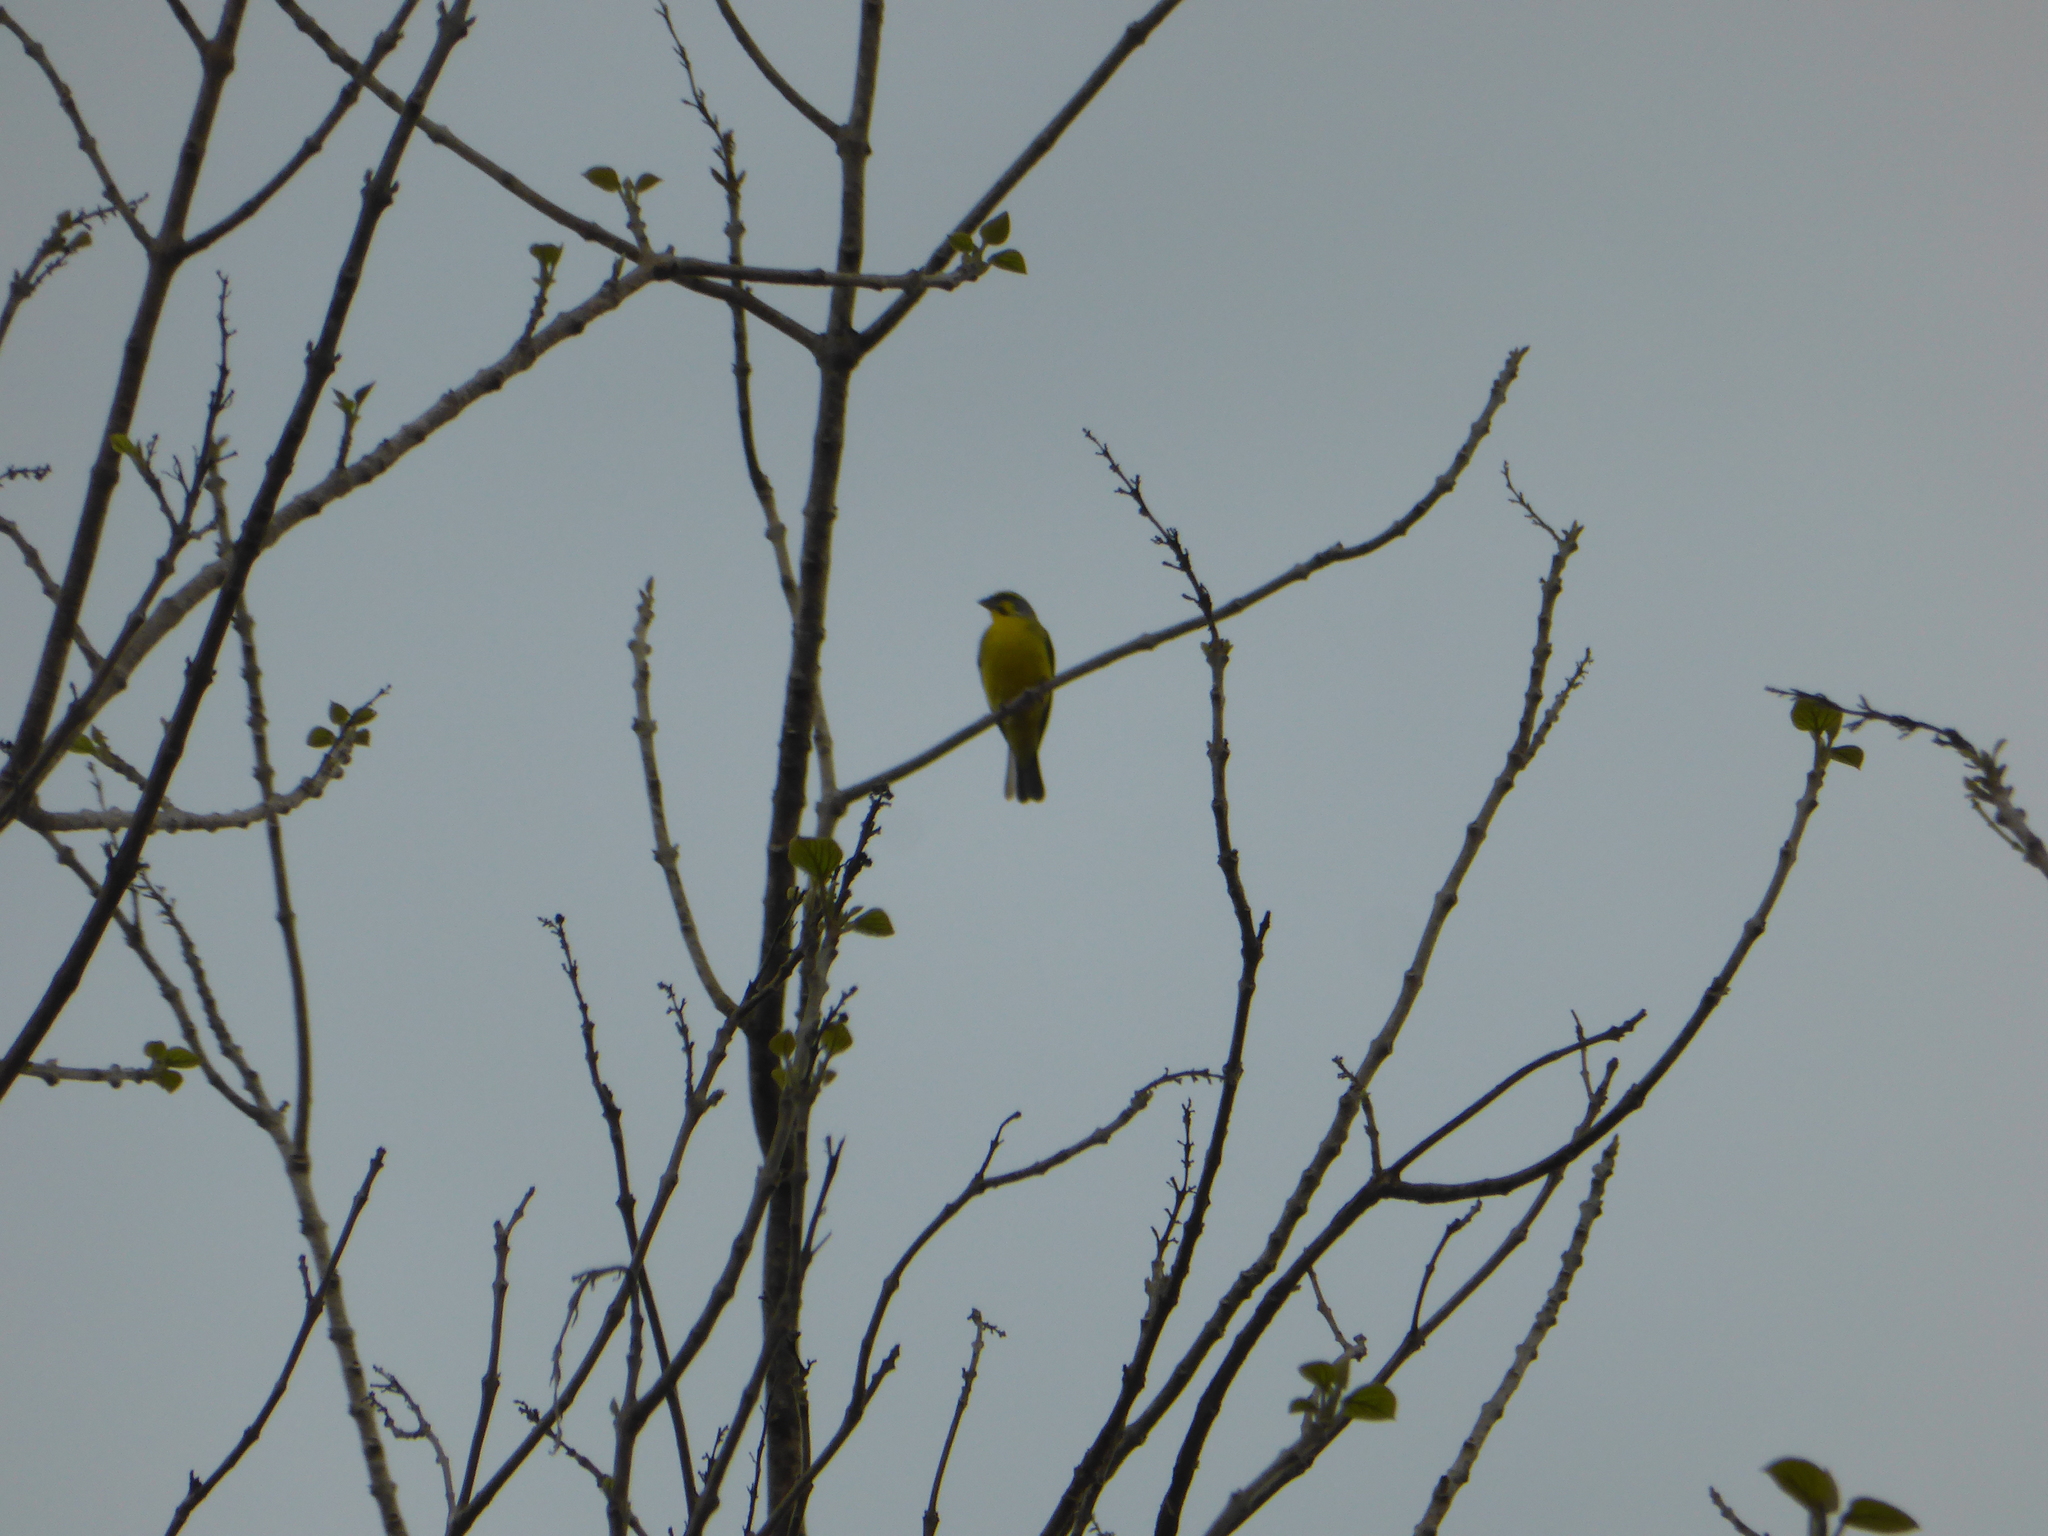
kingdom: Animalia
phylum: Chordata
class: Aves
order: Passeriformes
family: Fringillidae
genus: Crithagra
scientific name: Crithagra mozambica
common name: Yellow-fronted canary
